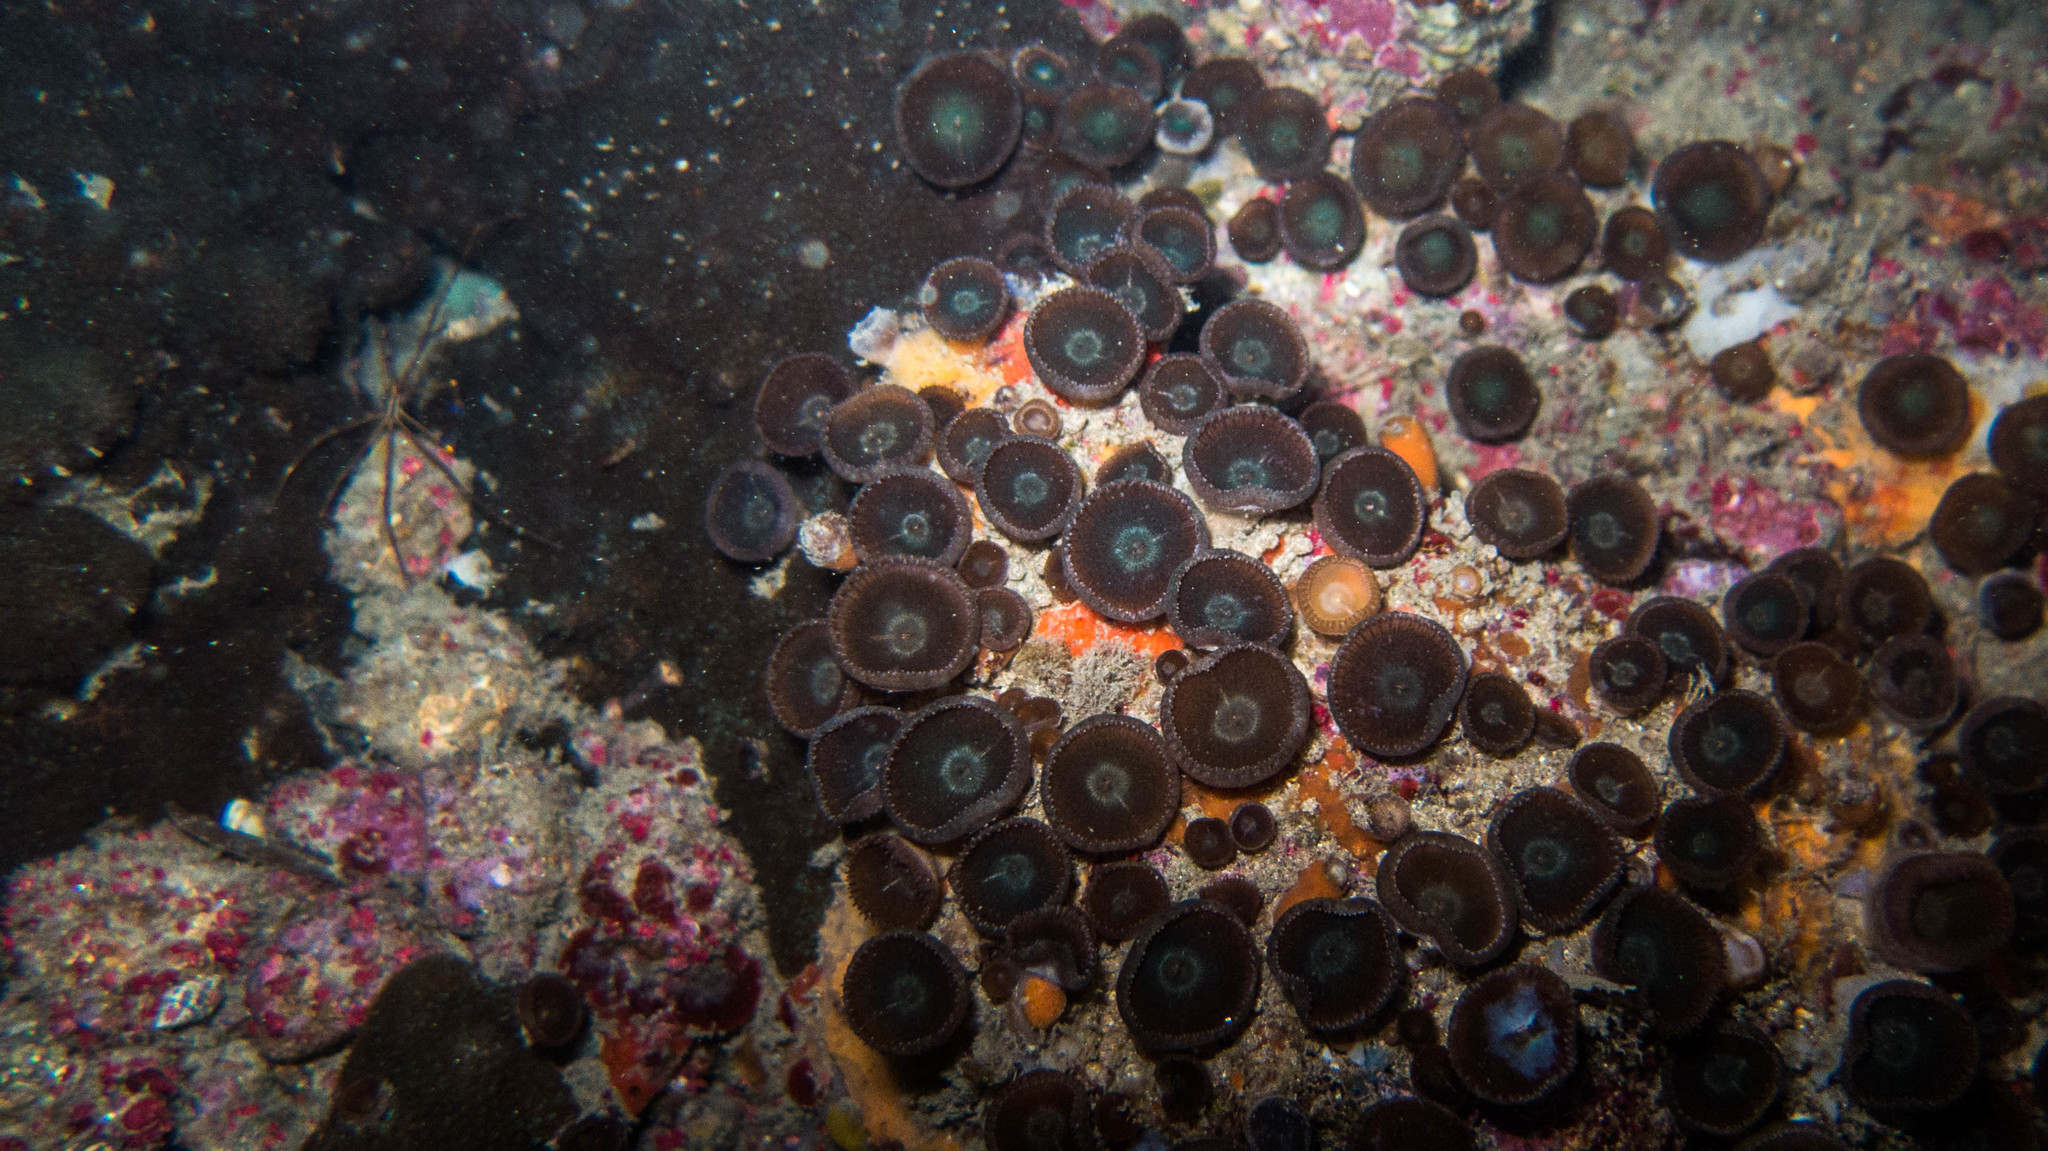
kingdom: Animalia
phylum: Cnidaria
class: Anthozoa
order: Zoantharia
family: Sphenopidae
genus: Palythoa
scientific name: Palythoa grandiflora
